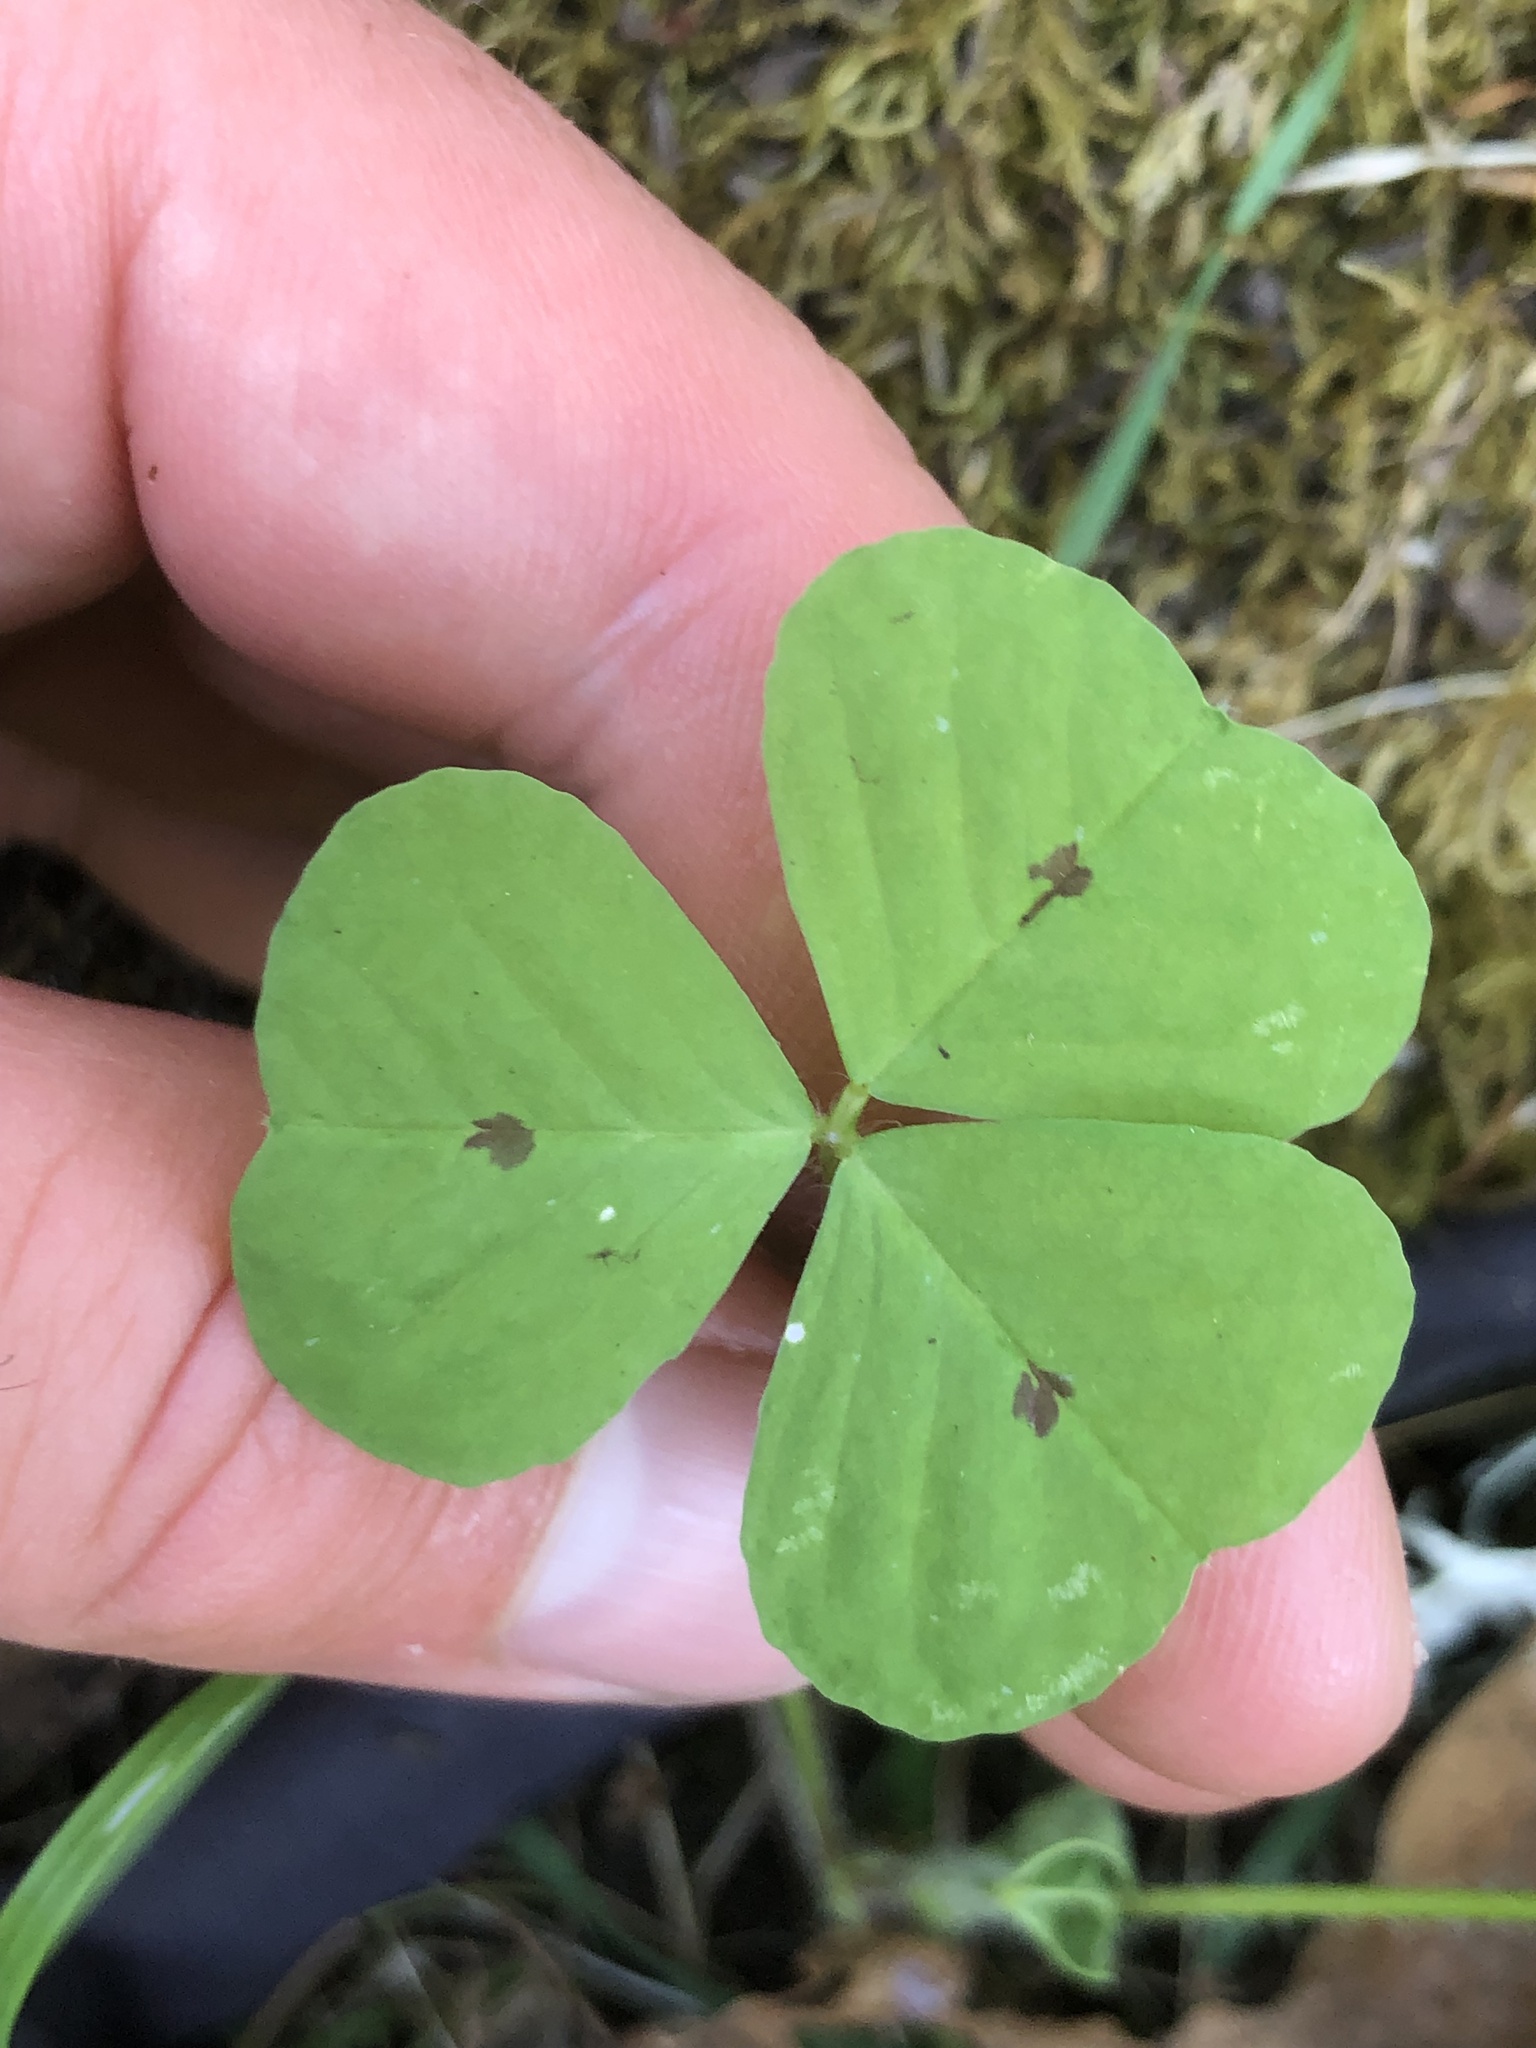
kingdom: Plantae
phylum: Tracheophyta
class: Magnoliopsida
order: Fabales
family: Fabaceae
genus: Medicago
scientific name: Medicago arabica
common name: Spotted medick
